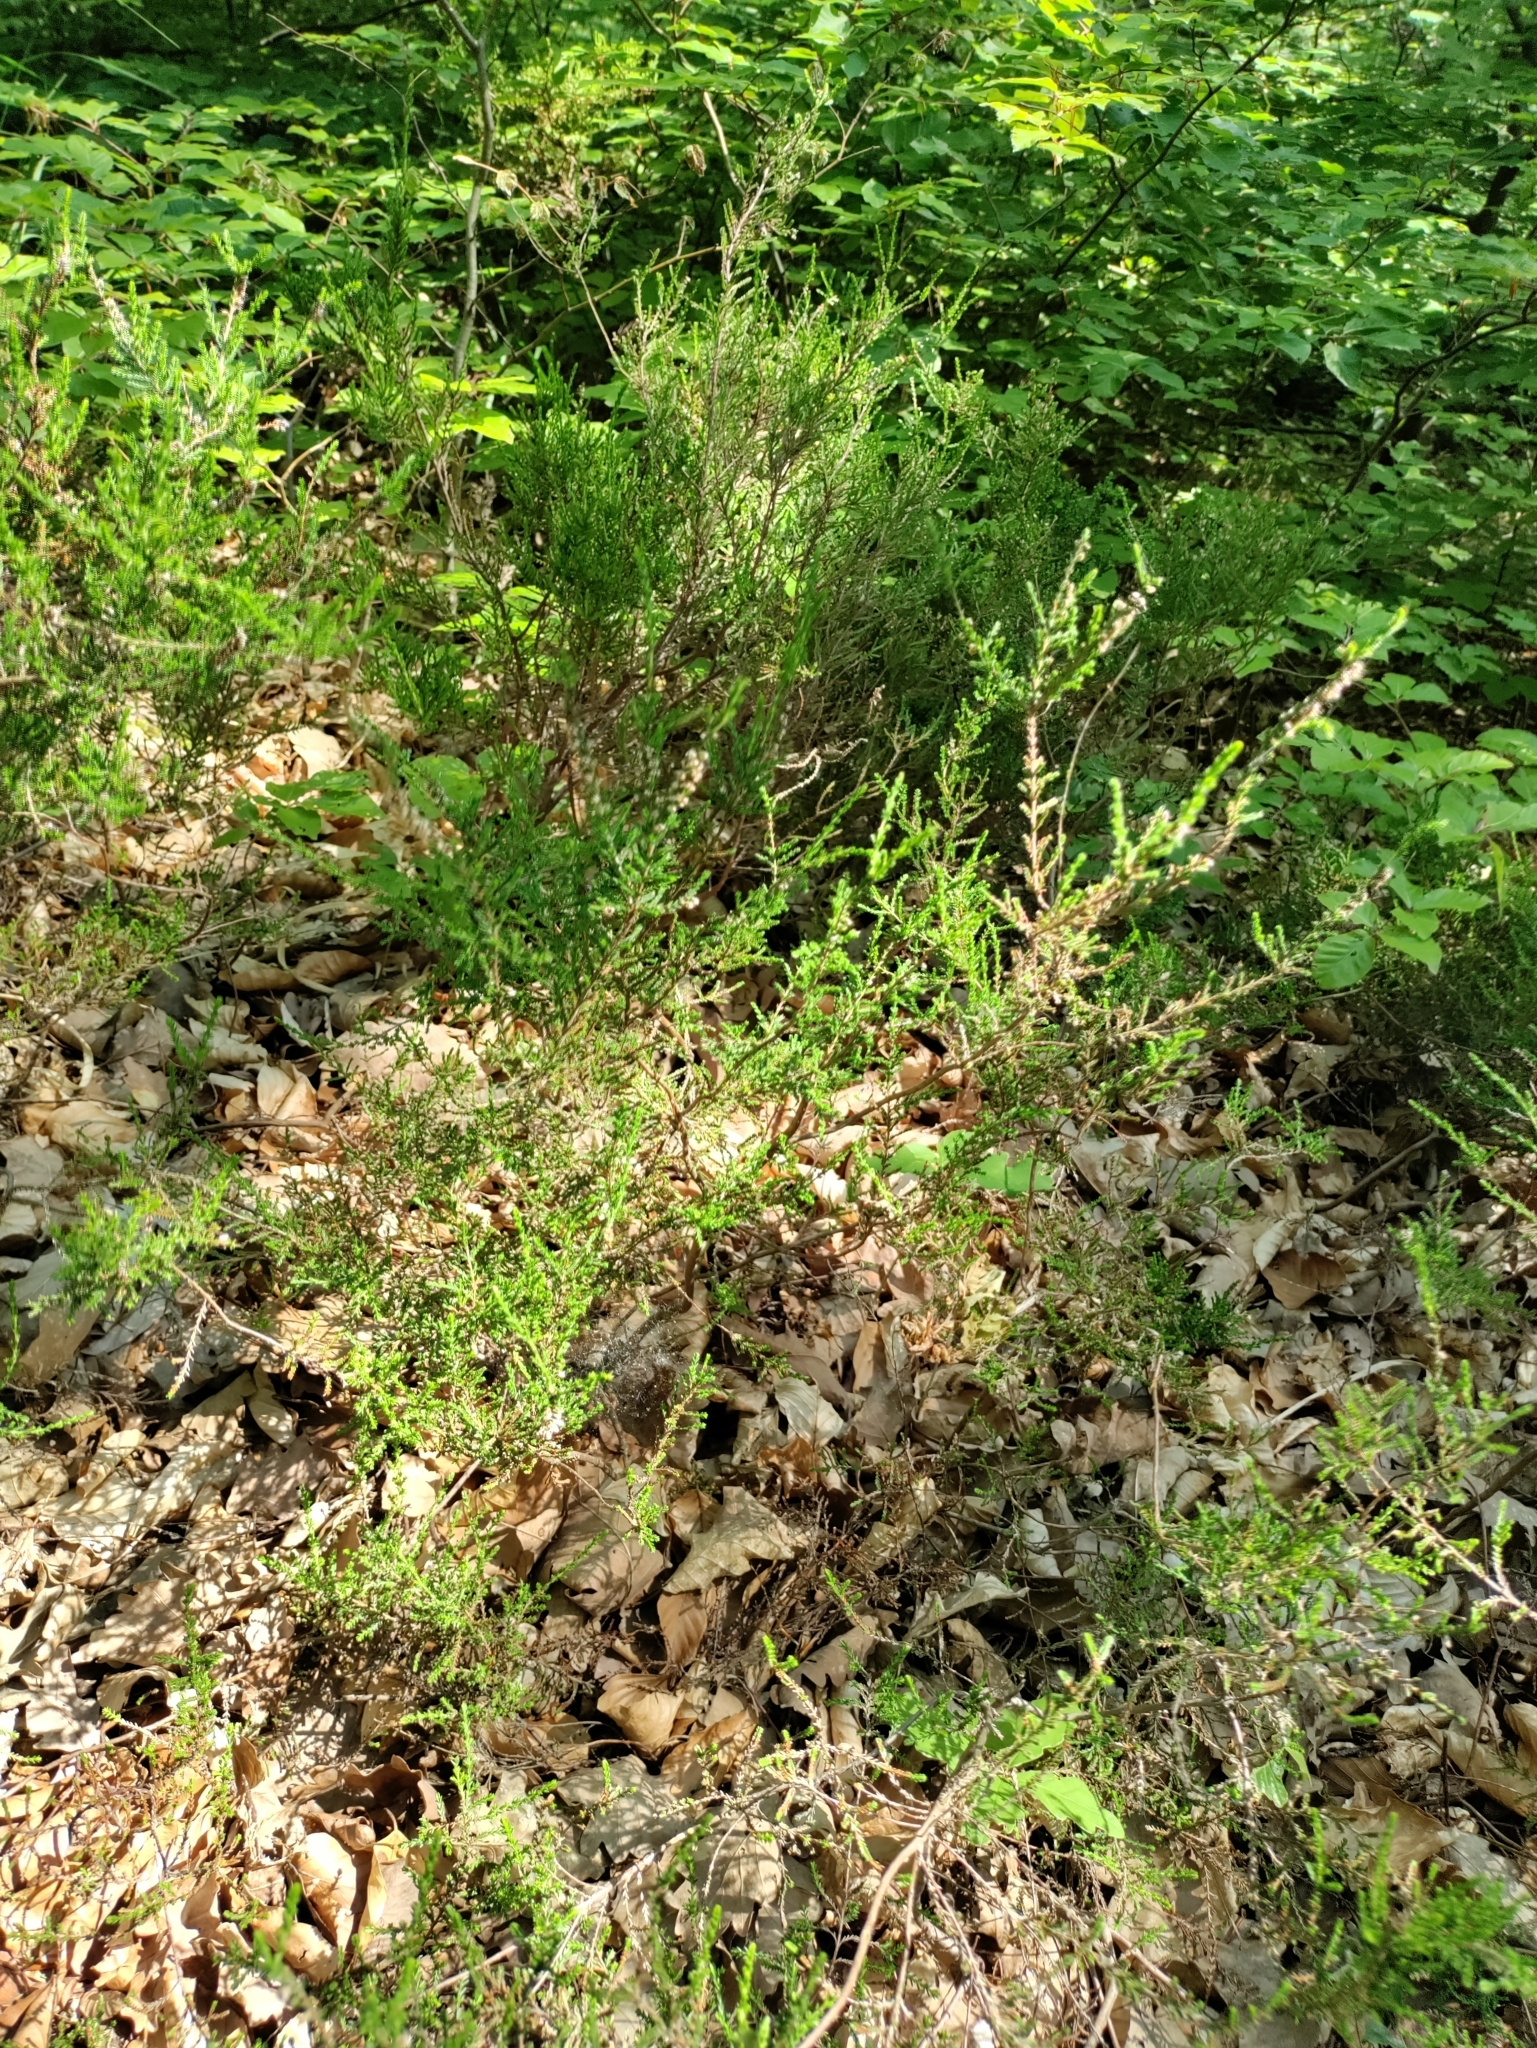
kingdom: Plantae
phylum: Tracheophyta
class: Magnoliopsida
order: Ericales
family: Ericaceae
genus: Calluna
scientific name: Calluna vulgaris
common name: Heather
